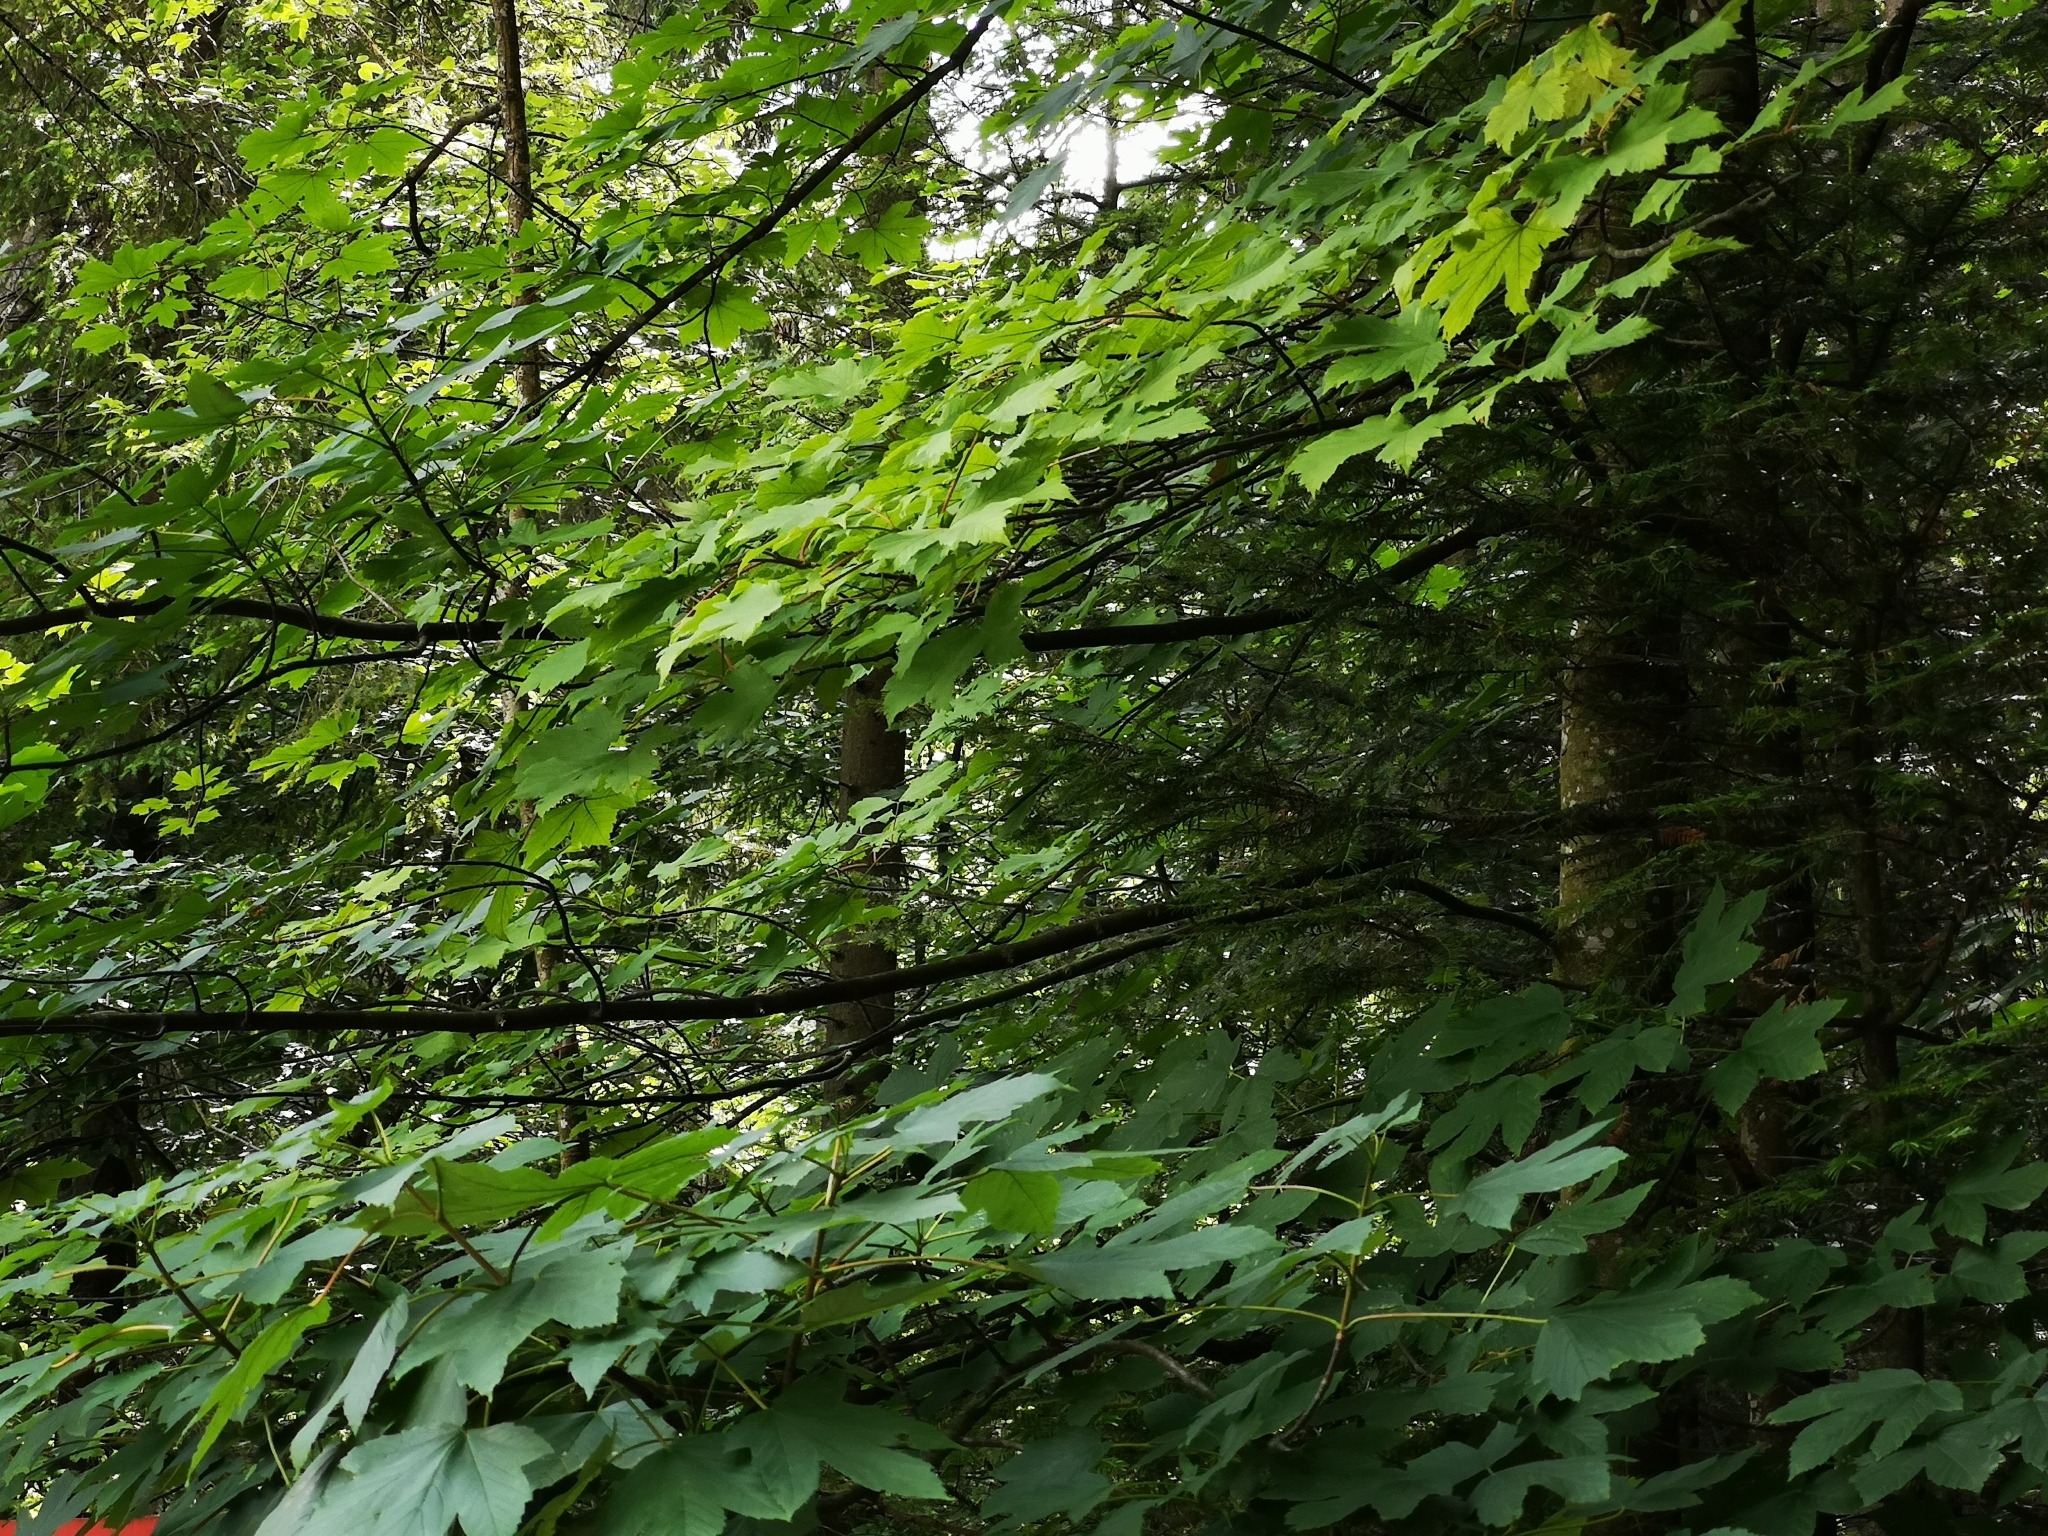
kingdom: Plantae
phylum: Tracheophyta
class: Magnoliopsida
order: Sapindales
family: Sapindaceae
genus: Acer
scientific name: Acer pseudoplatanus
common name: Sycamore
